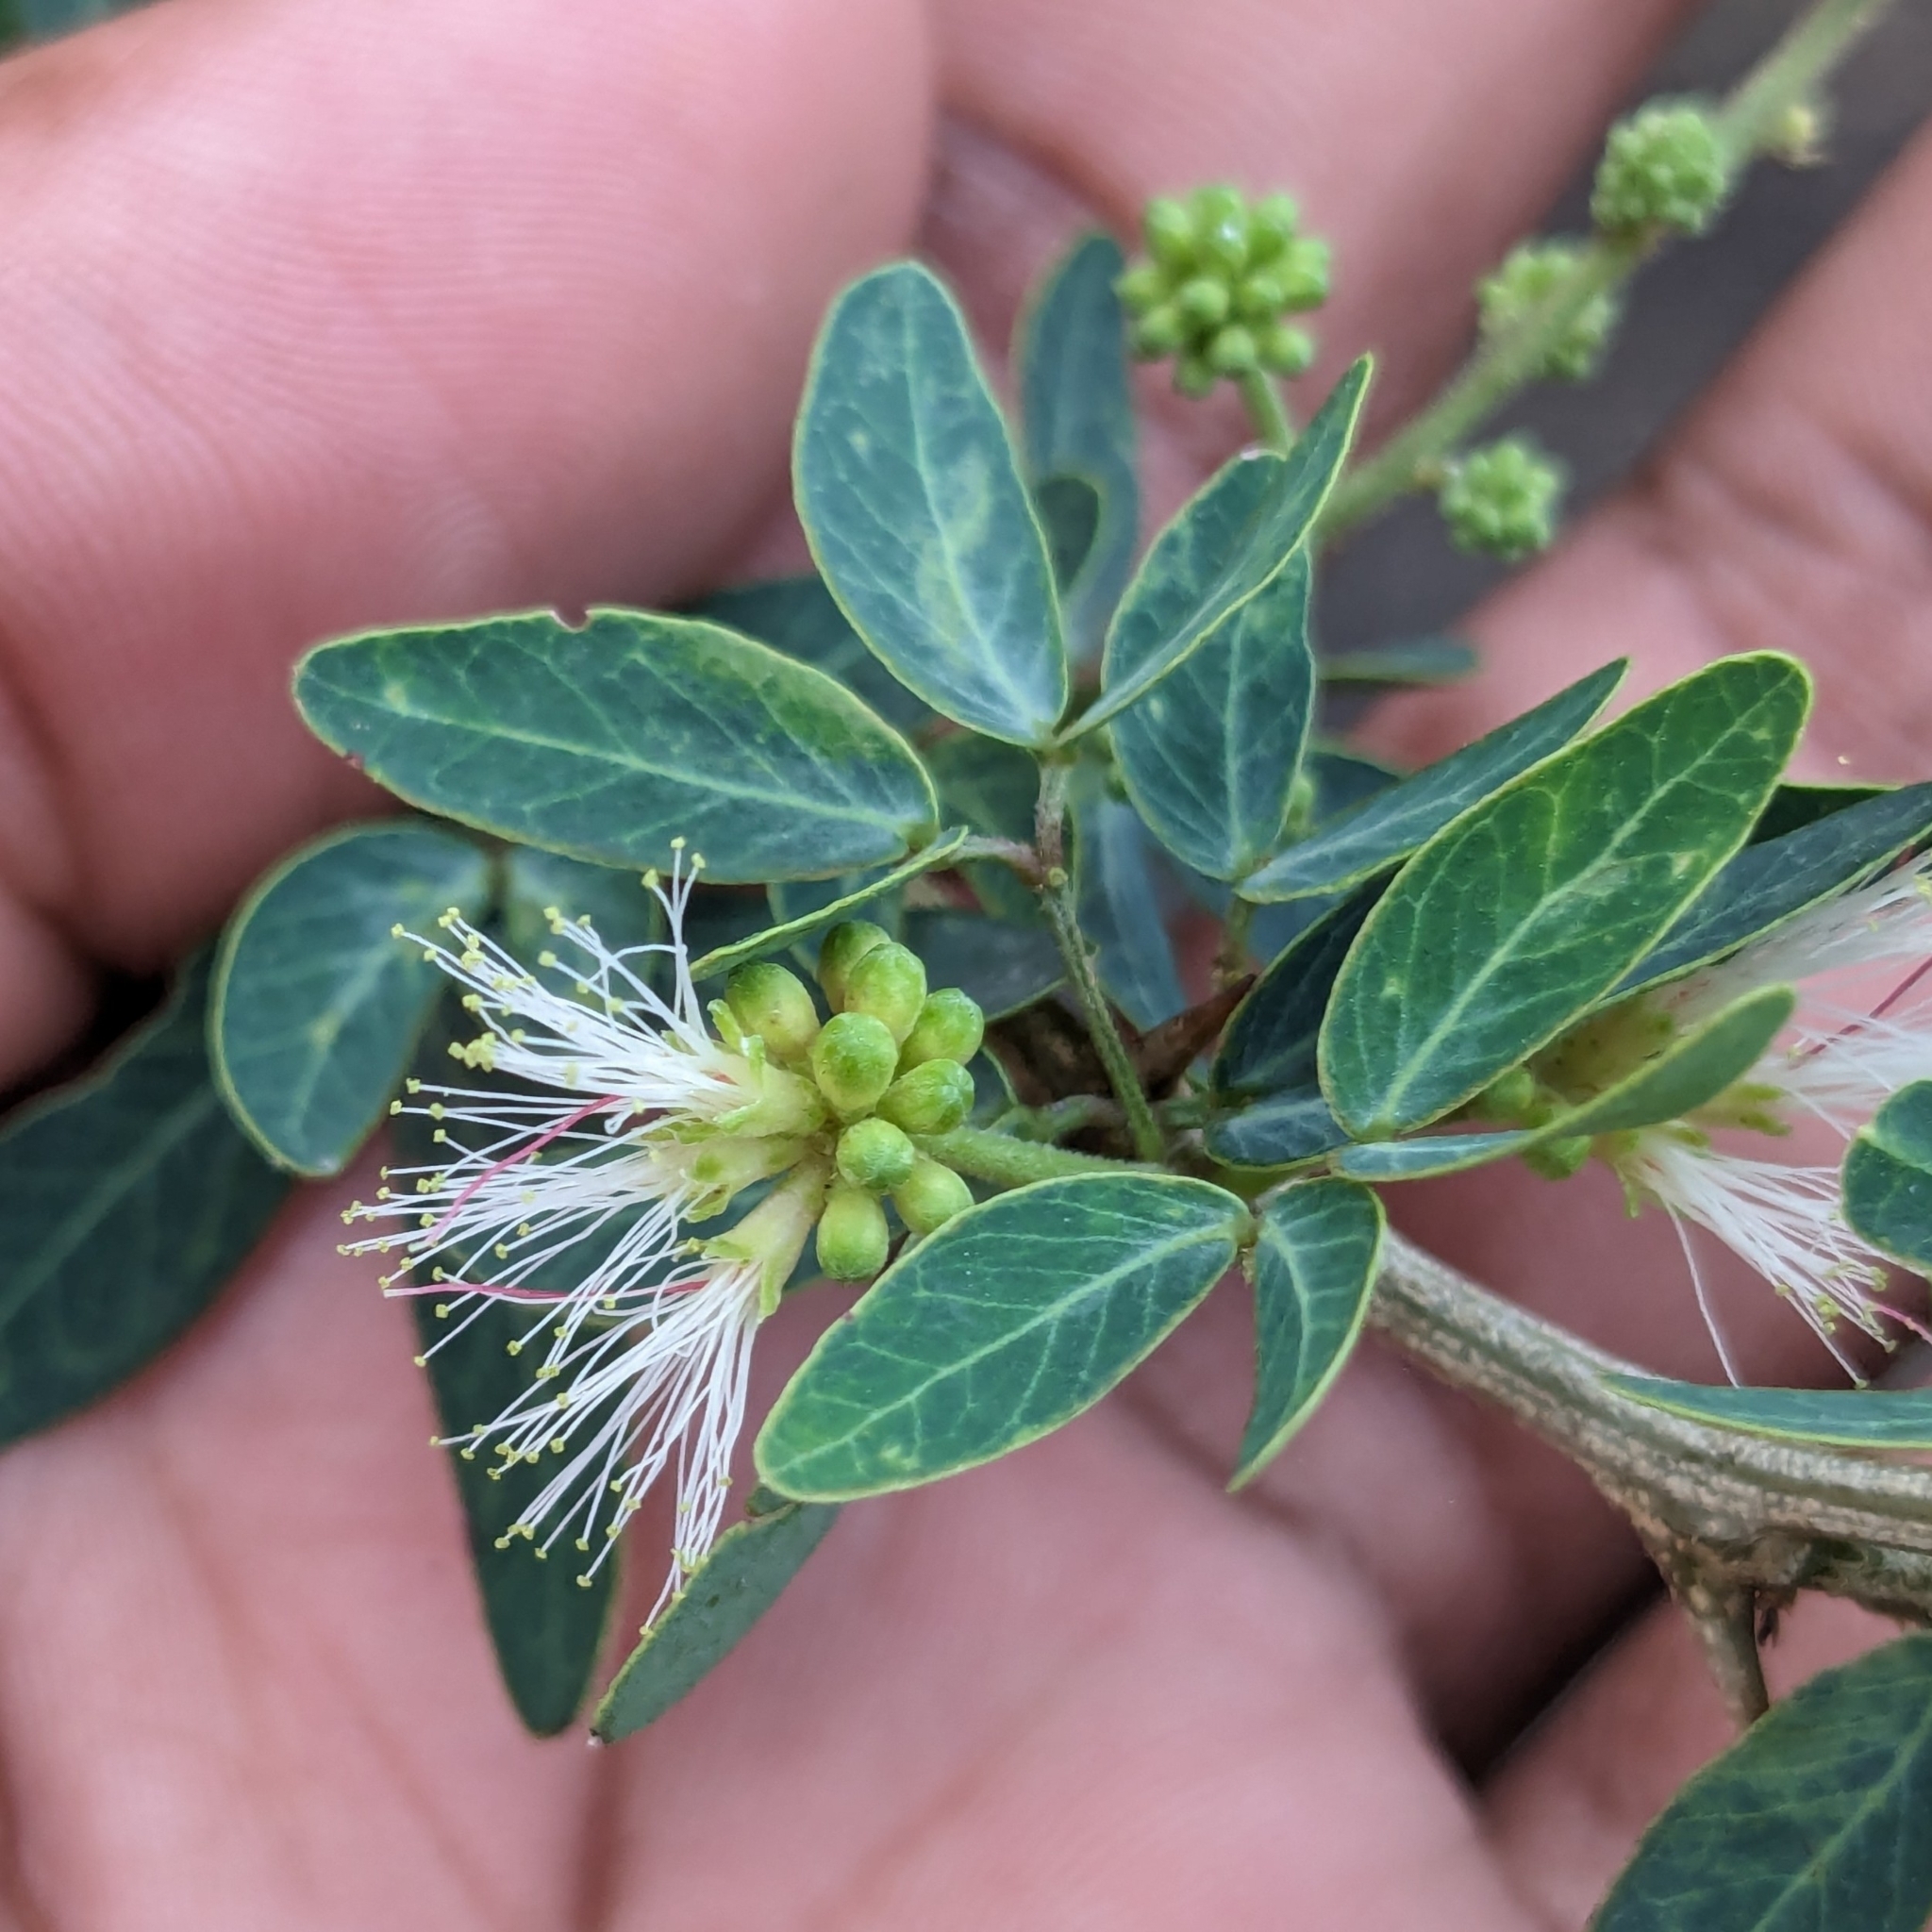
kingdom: Plantae
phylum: Tracheophyta
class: Magnoliopsida
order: Fabales
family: Fabaceae
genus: Pithecellobium
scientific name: Pithecellobium dulce
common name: Monkeypod
